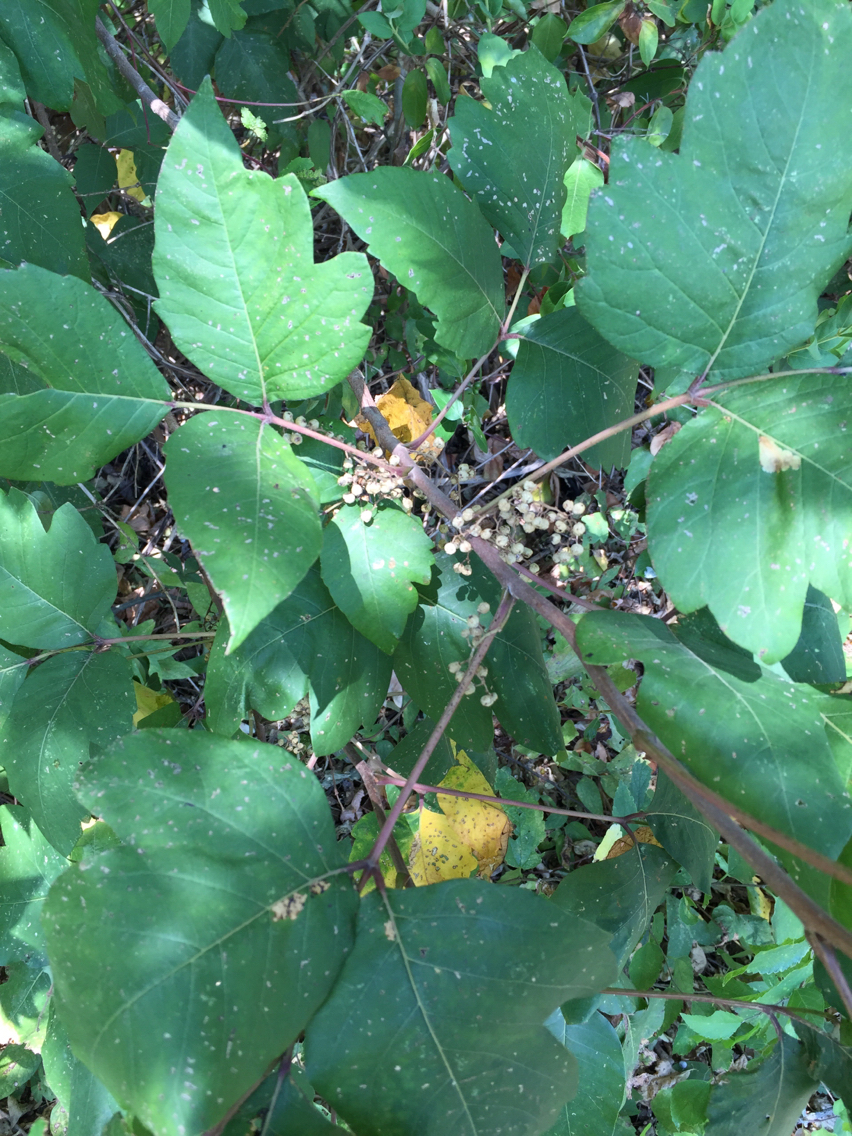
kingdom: Plantae
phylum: Tracheophyta
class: Magnoliopsida
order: Sapindales
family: Anacardiaceae
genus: Toxicodendron
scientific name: Toxicodendron radicans
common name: Poison ivy
